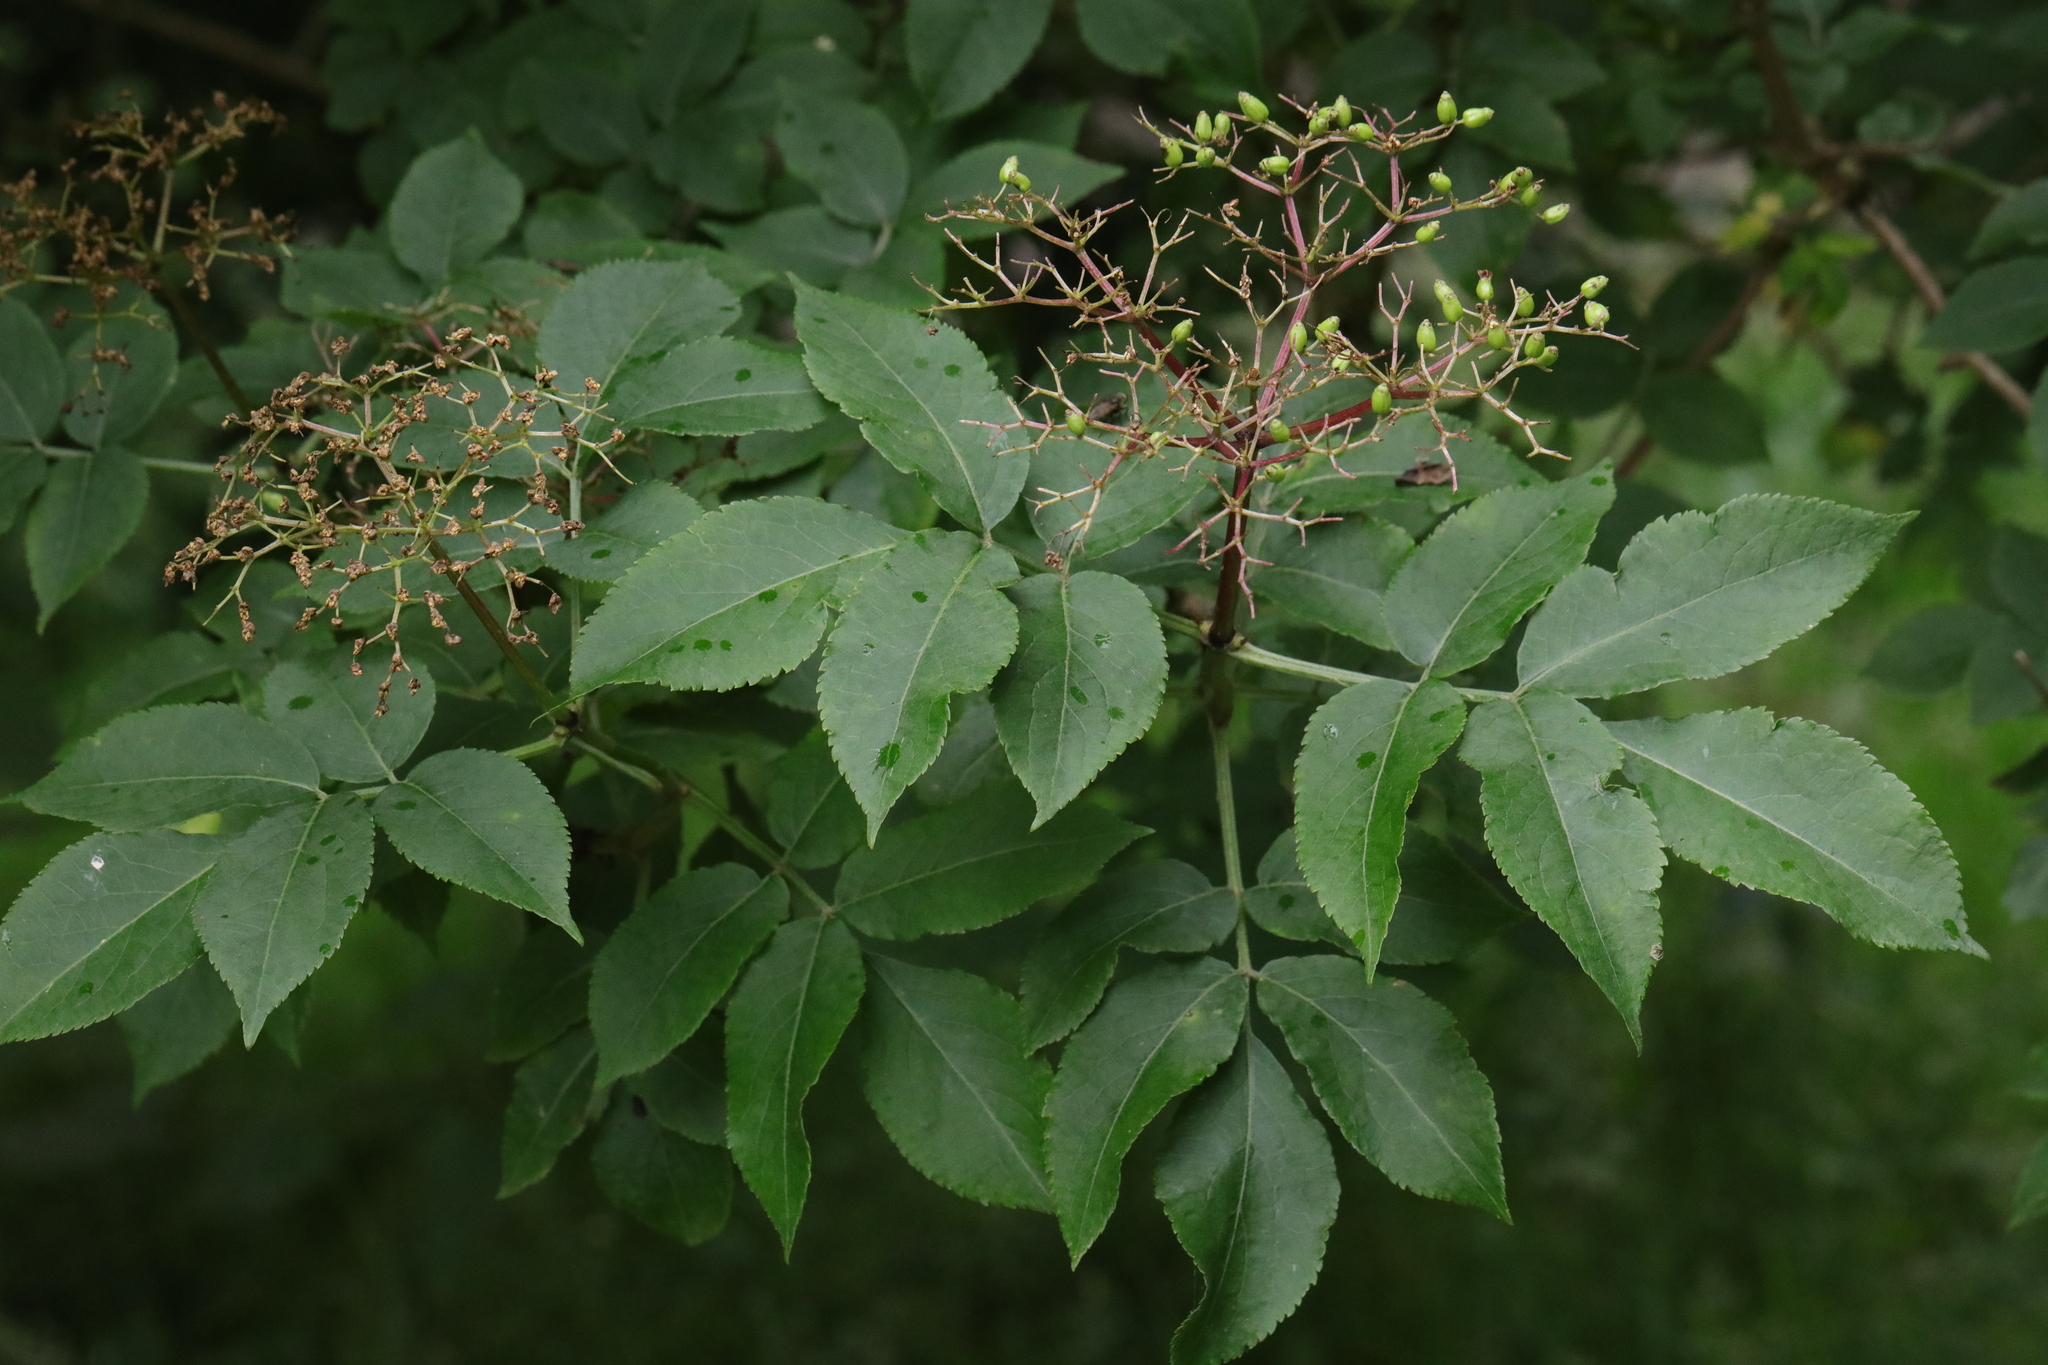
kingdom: Plantae
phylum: Tracheophyta
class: Magnoliopsida
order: Dipsacales
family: Viburnaceae
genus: Sambucus
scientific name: Sambucus nigra
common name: Elder
